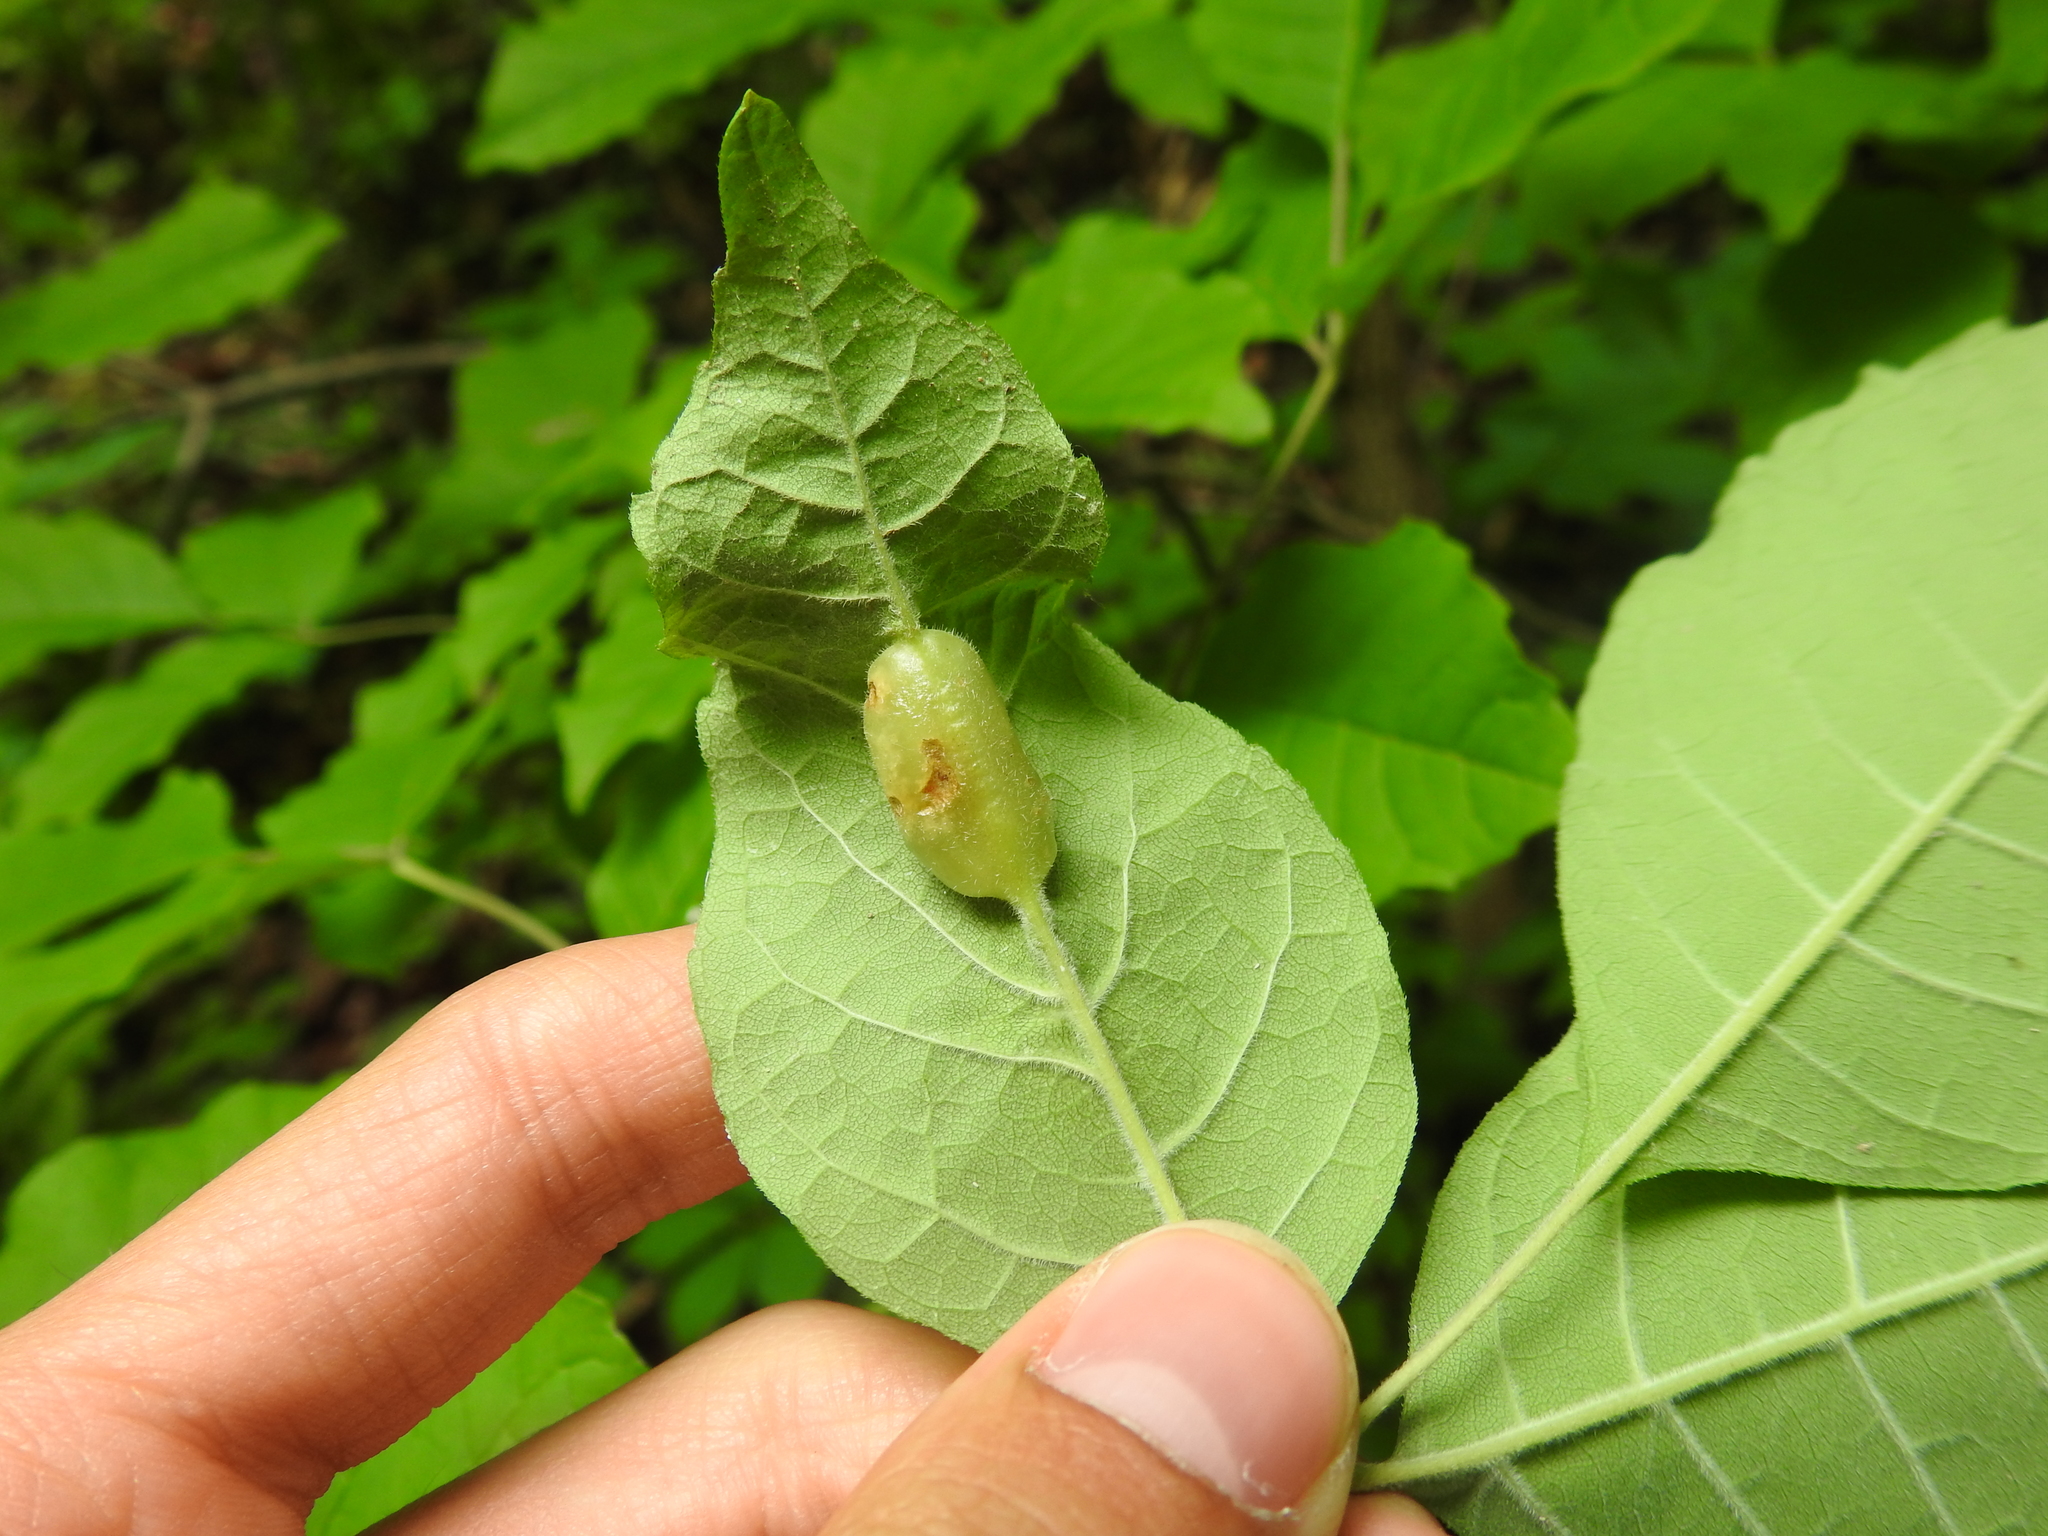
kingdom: Animalia
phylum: Arthropoda
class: Insecta
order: Diptera
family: Cecidomyiidae
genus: Dasineura
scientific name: Dasineura tumidosae
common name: Ash petiole gall midge
